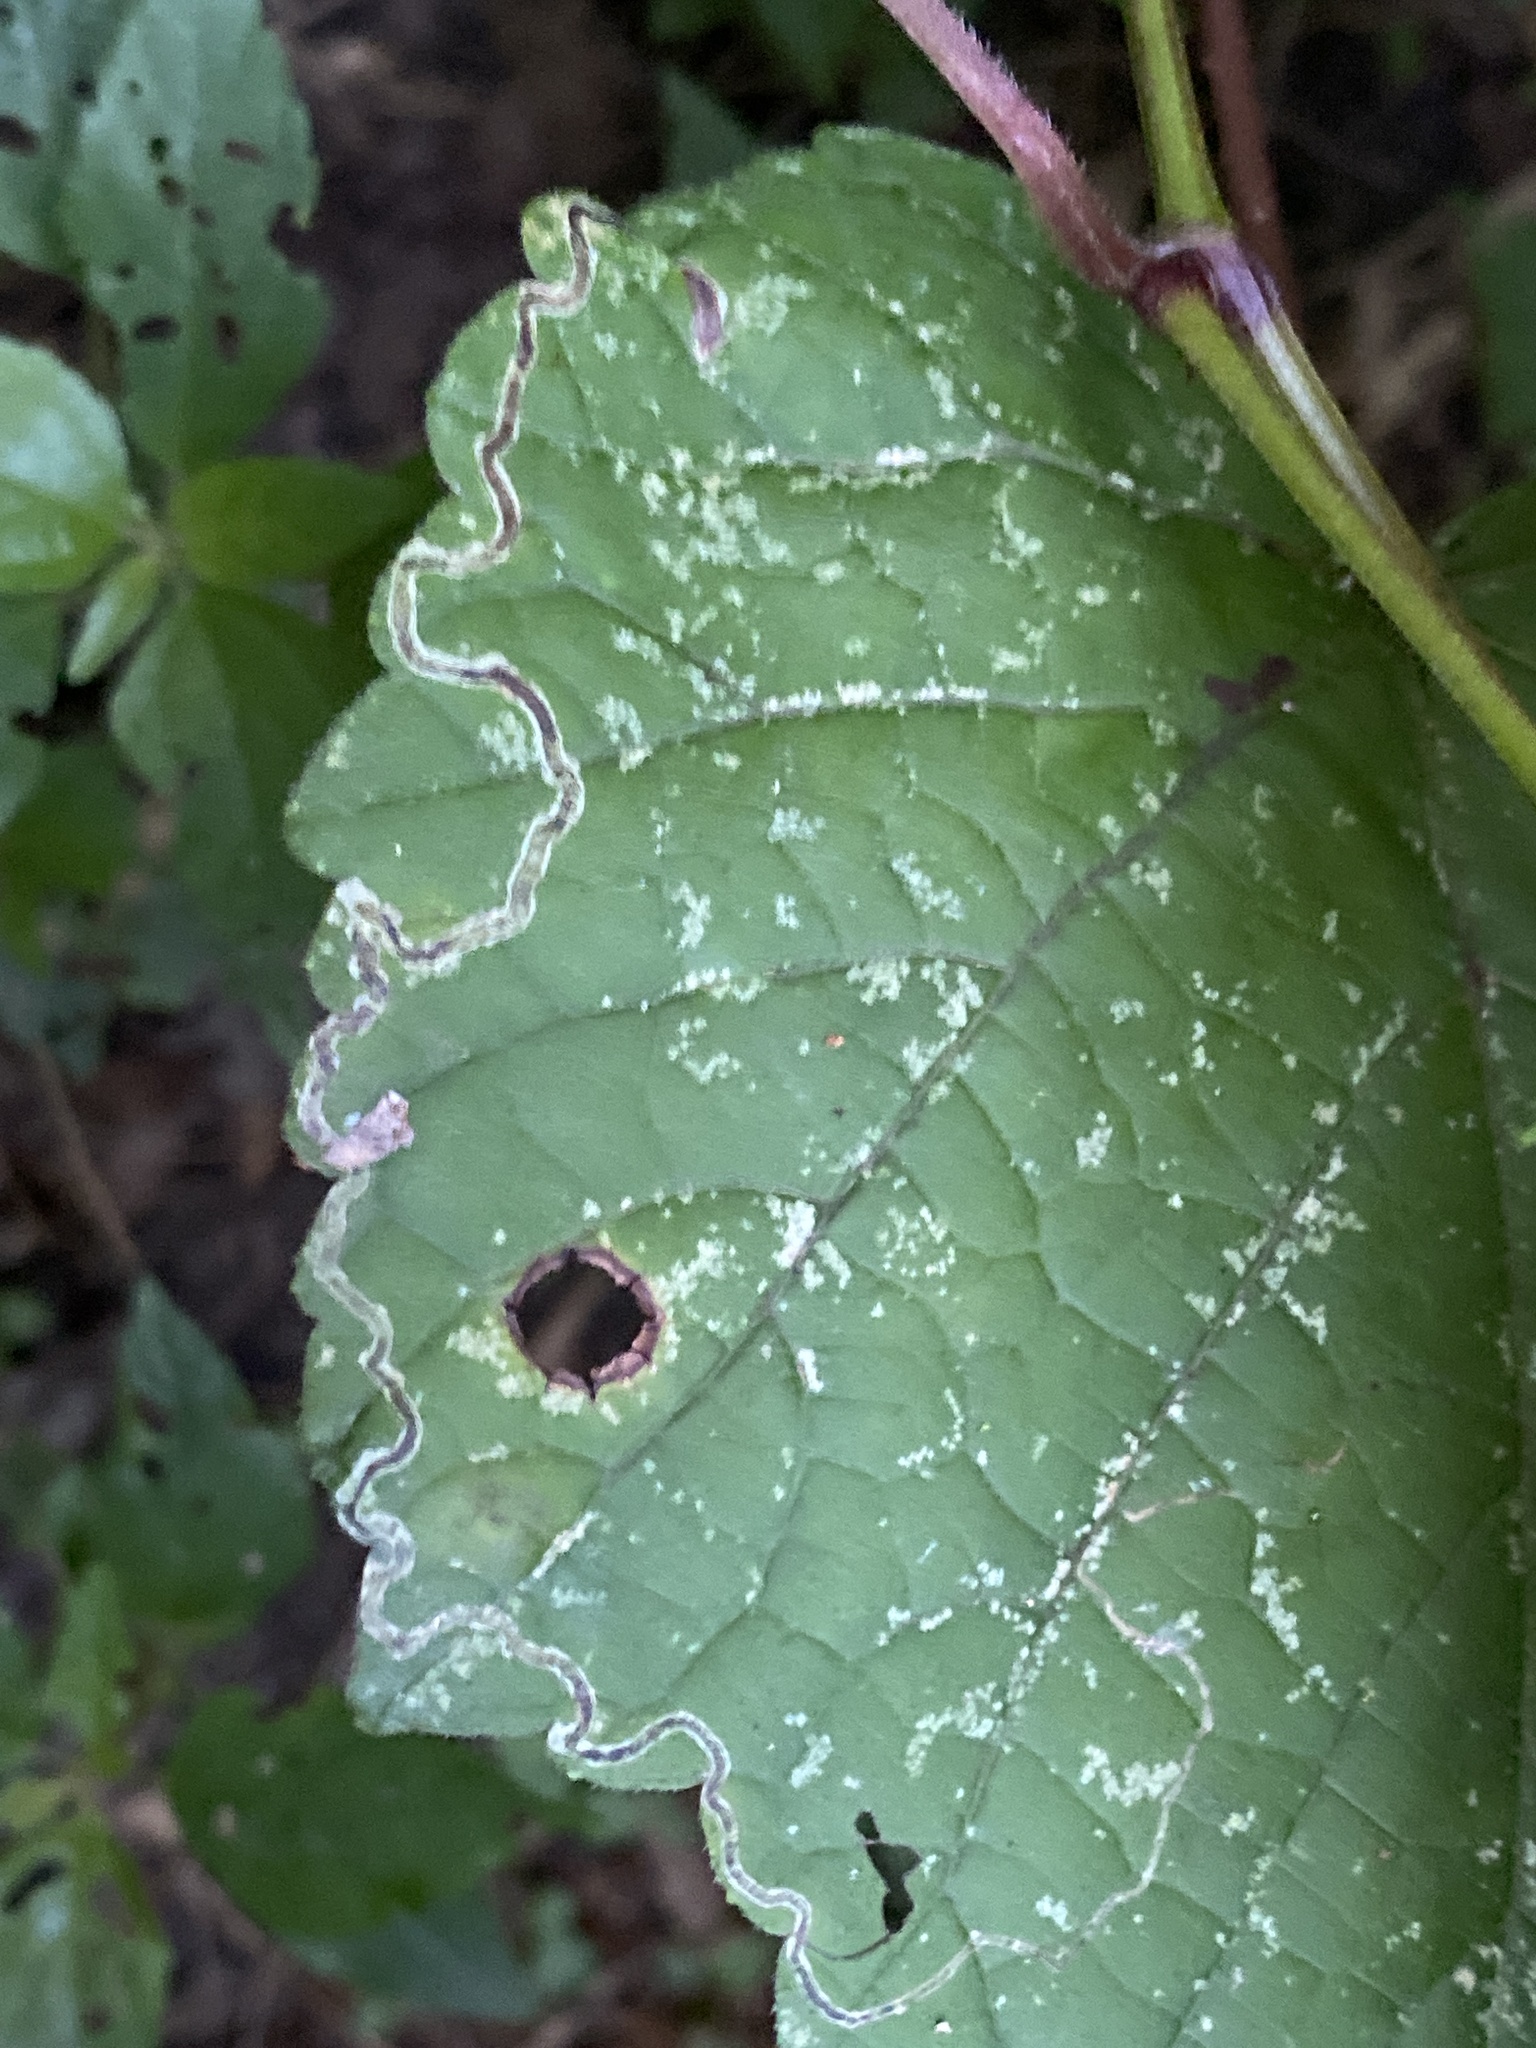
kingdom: Animalia
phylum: Arthropoda
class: Insecta
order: Lepidoptera
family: Gracillariidae
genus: Phyllocnistis
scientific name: Phyllocnistis vitifoliella
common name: Grape leaf-miner moth
